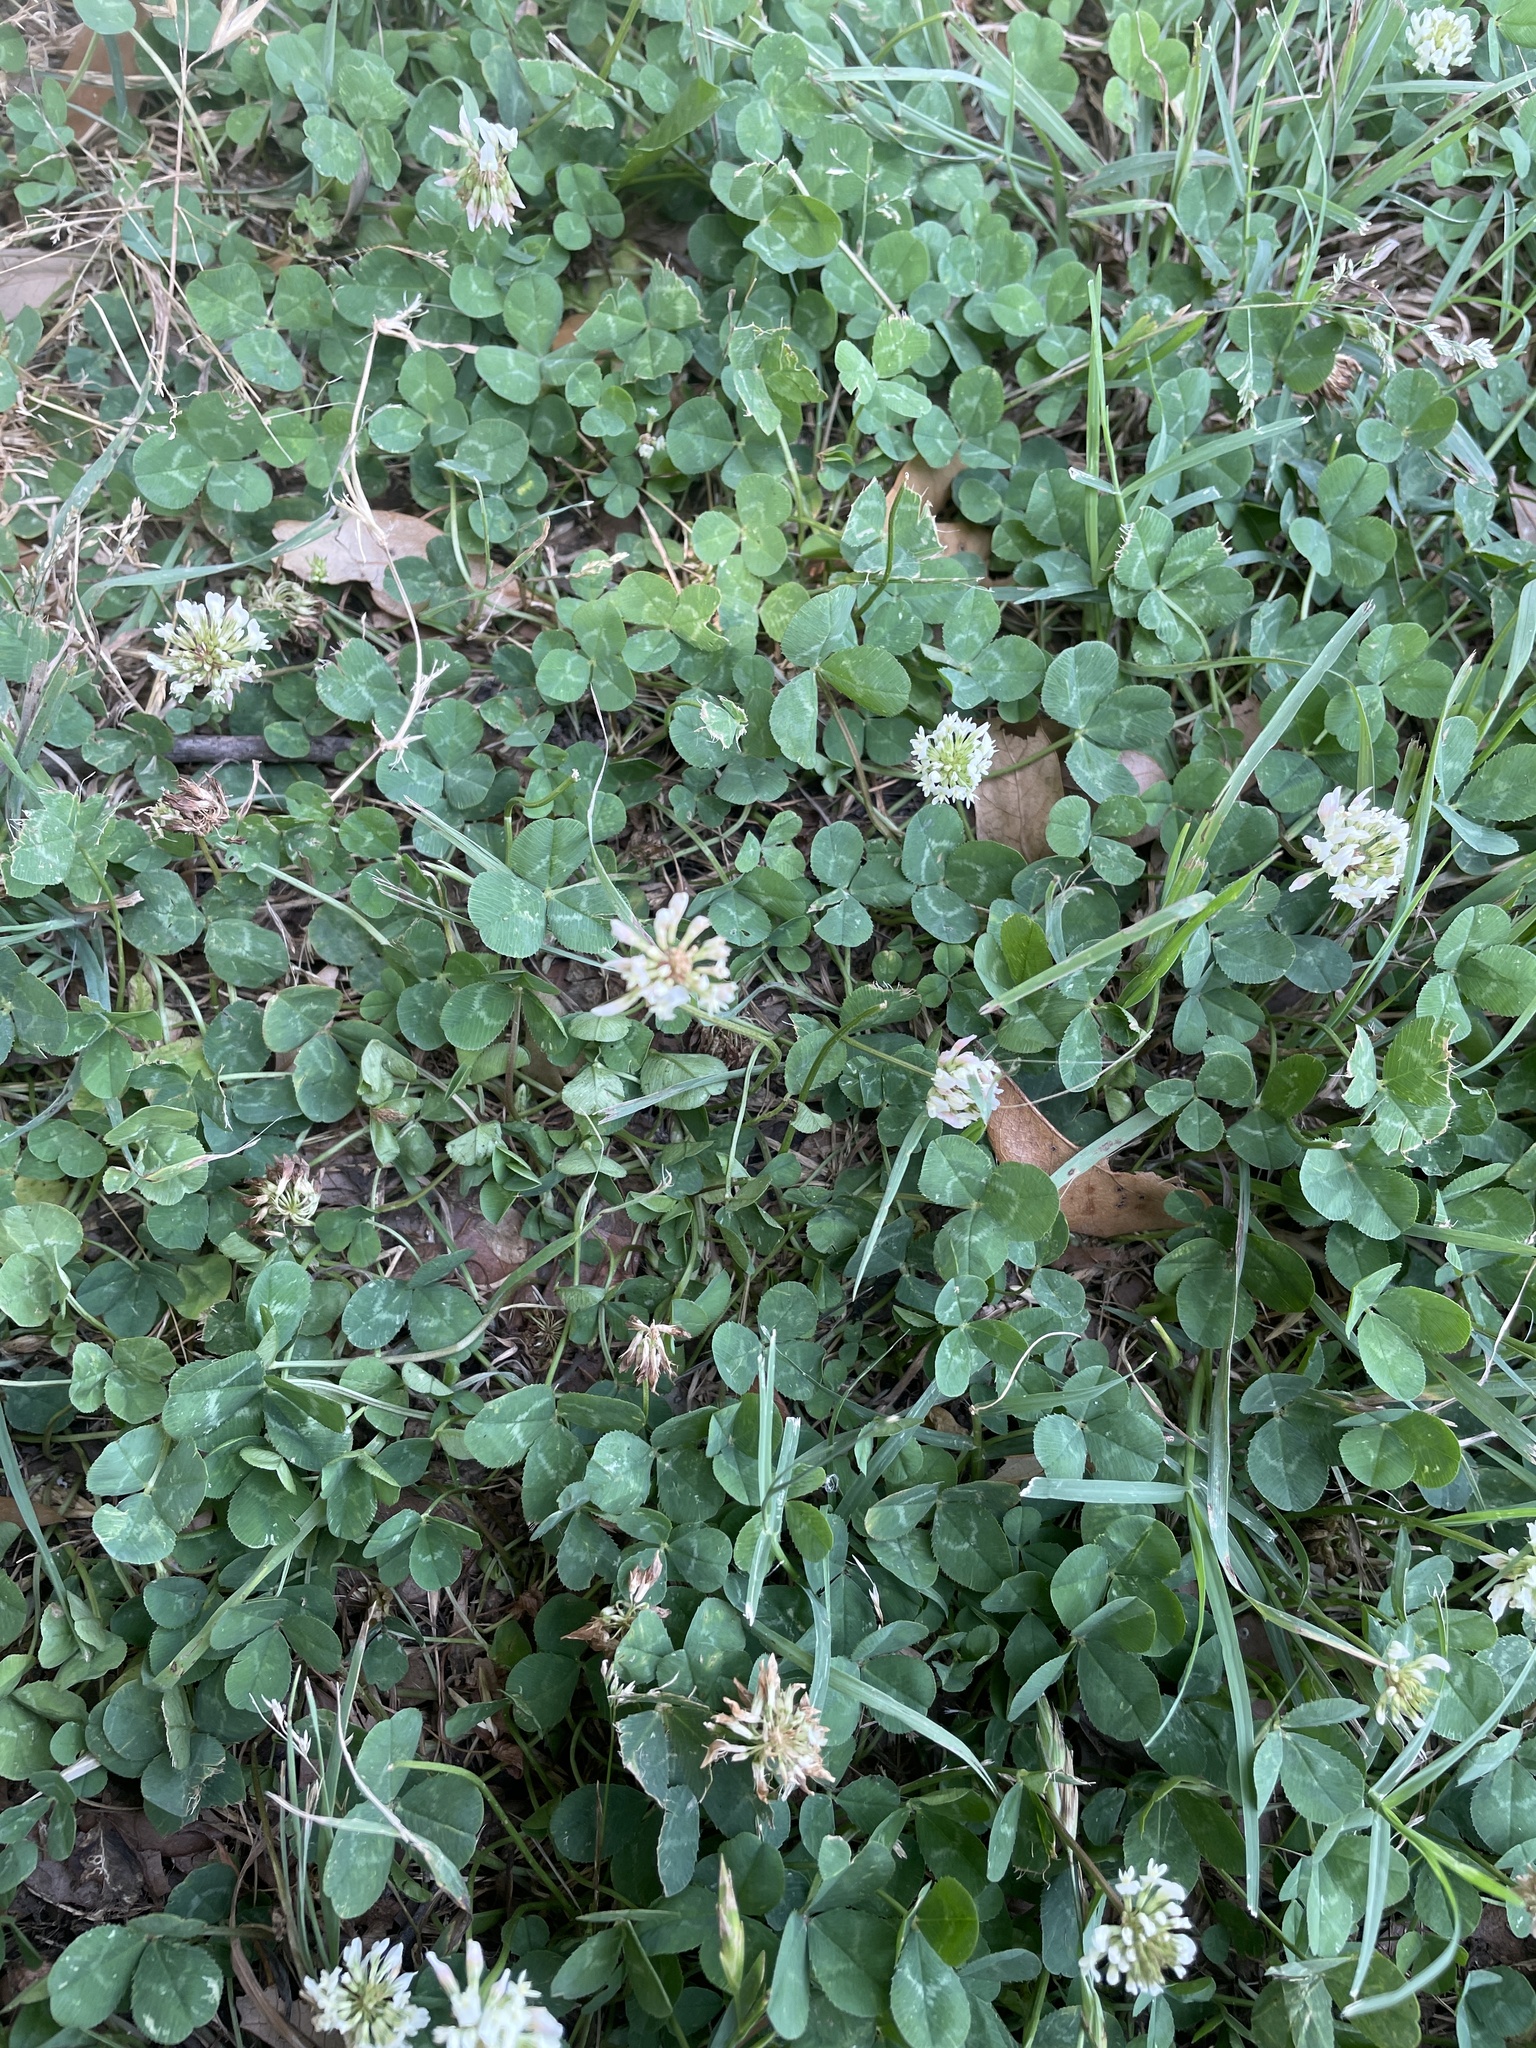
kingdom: Plantae
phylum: Tracheophyta
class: Magnoliopsida
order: Fabales
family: Fabaceae
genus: Trifolium
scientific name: Trifolium repens
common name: White clover
